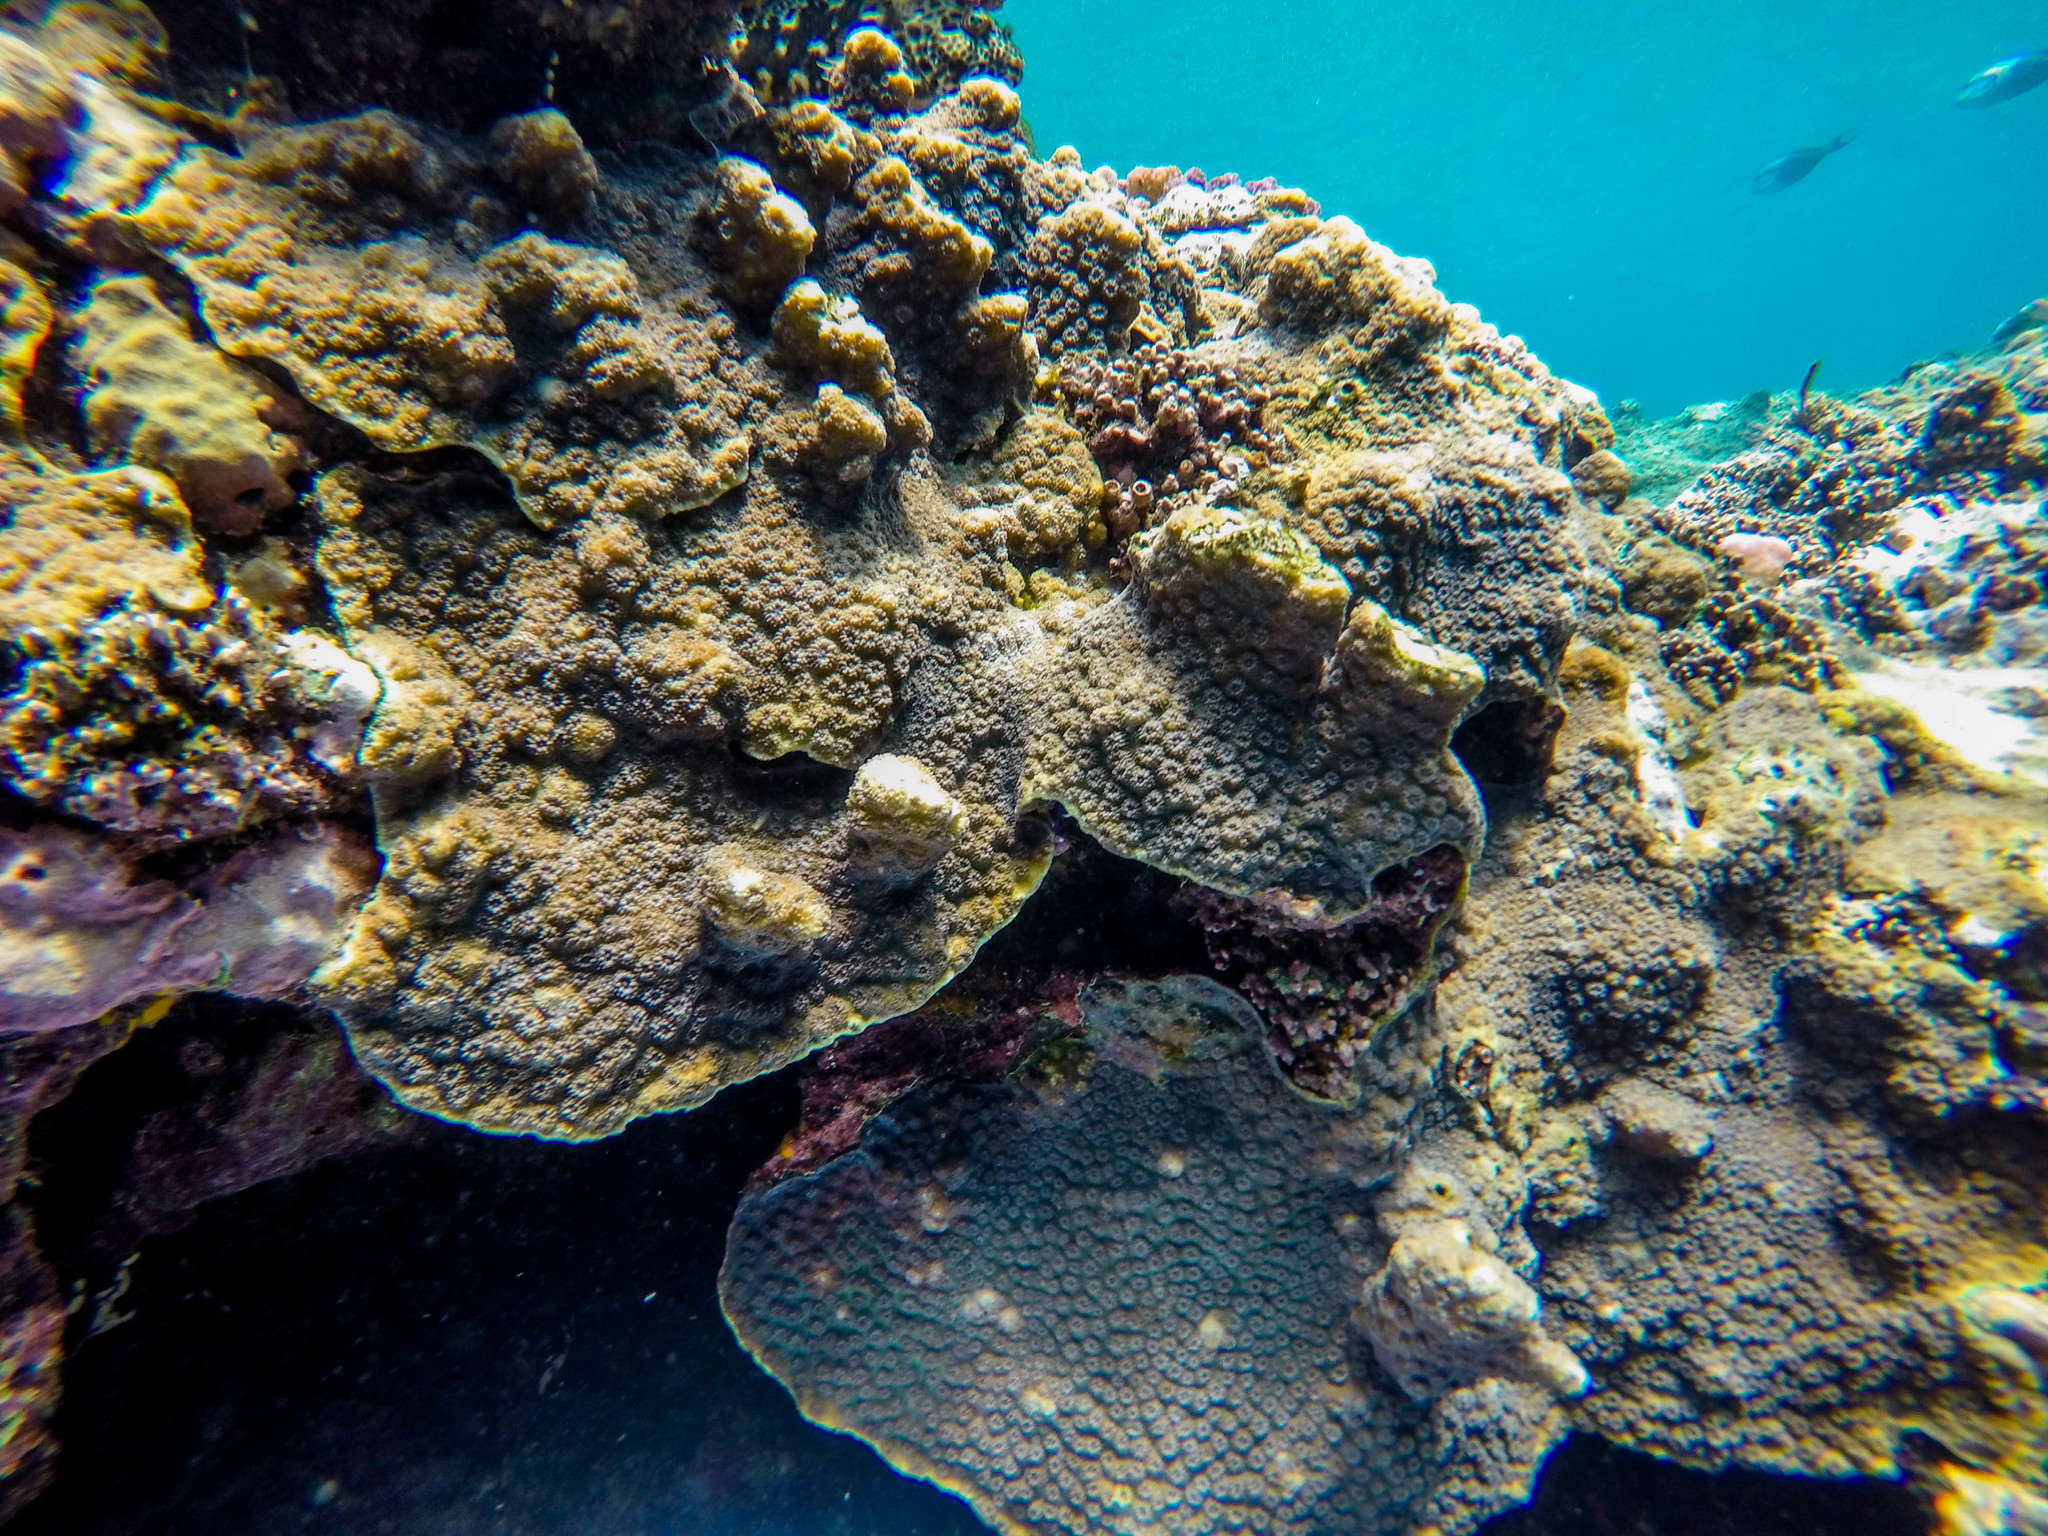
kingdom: Animalia
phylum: Chordata
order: Perciformes
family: Acanthuridae
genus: Acanthurus
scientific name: Acanthurus sohal
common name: Red sea surgeonfish
